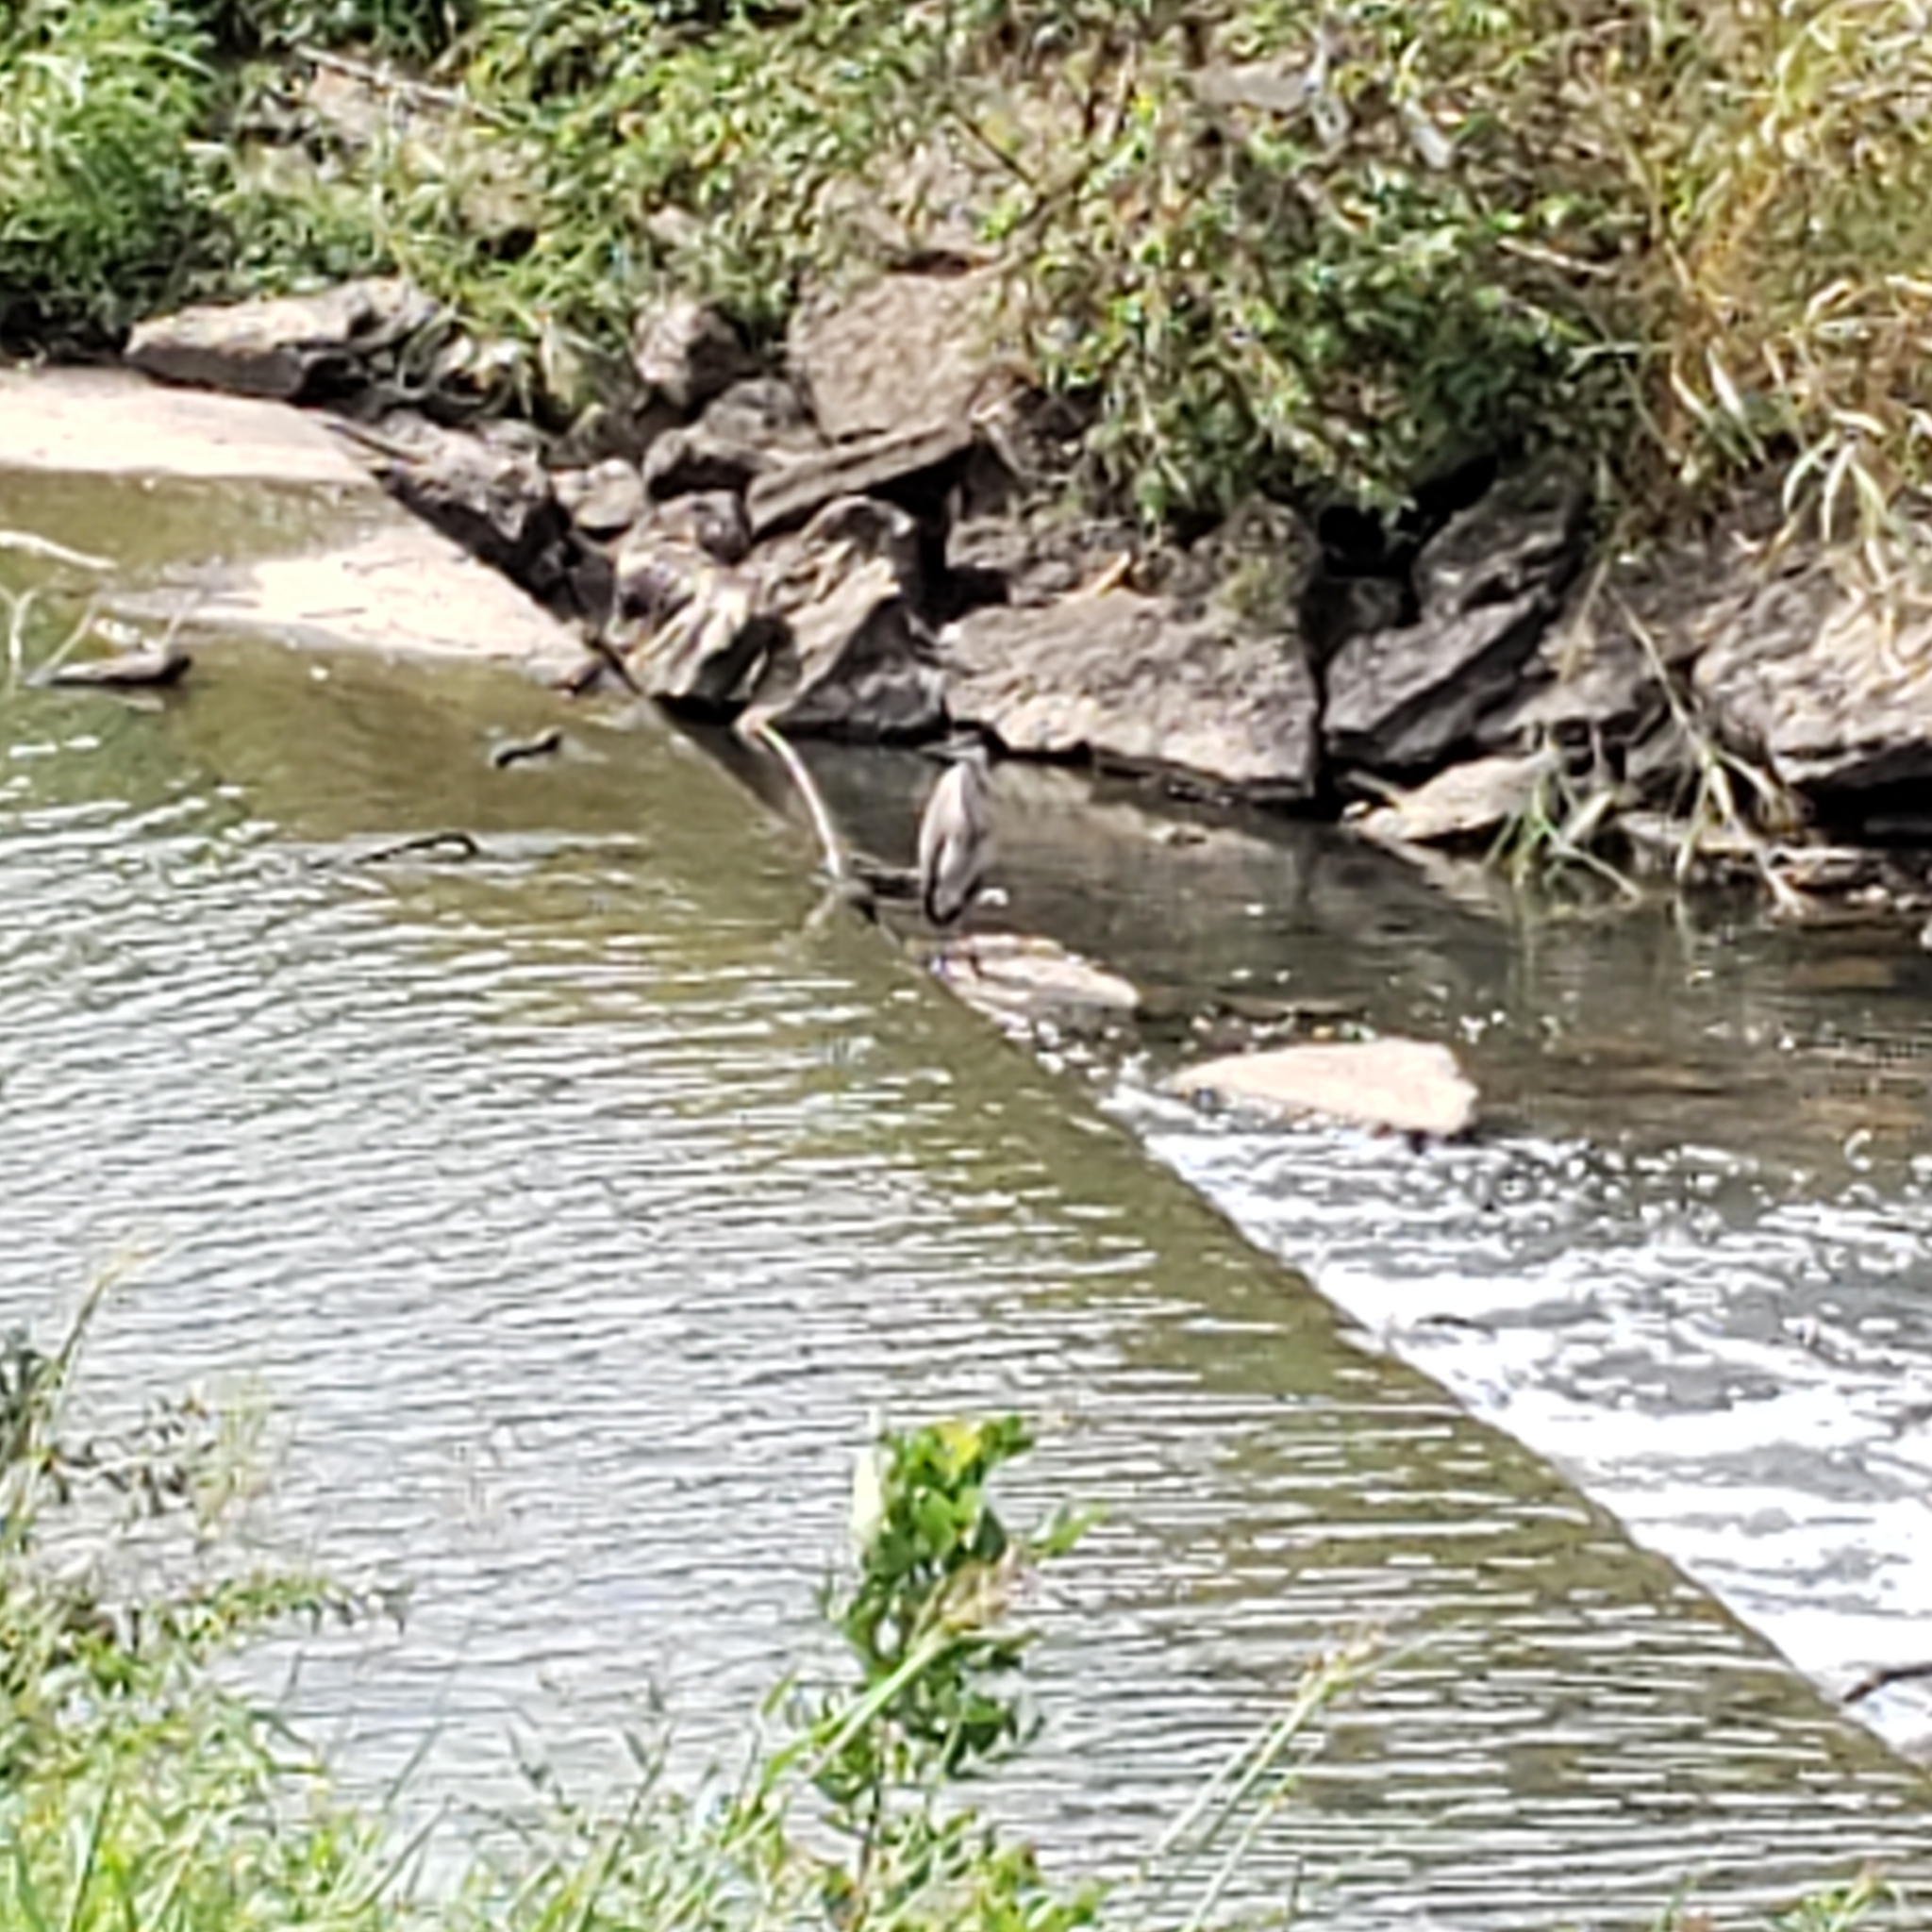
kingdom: Animalia
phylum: Chordata
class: Aves
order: Pelecaniformes
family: Ardeidae
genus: Ardea
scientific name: Ardea herodias
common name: Great blue heron
